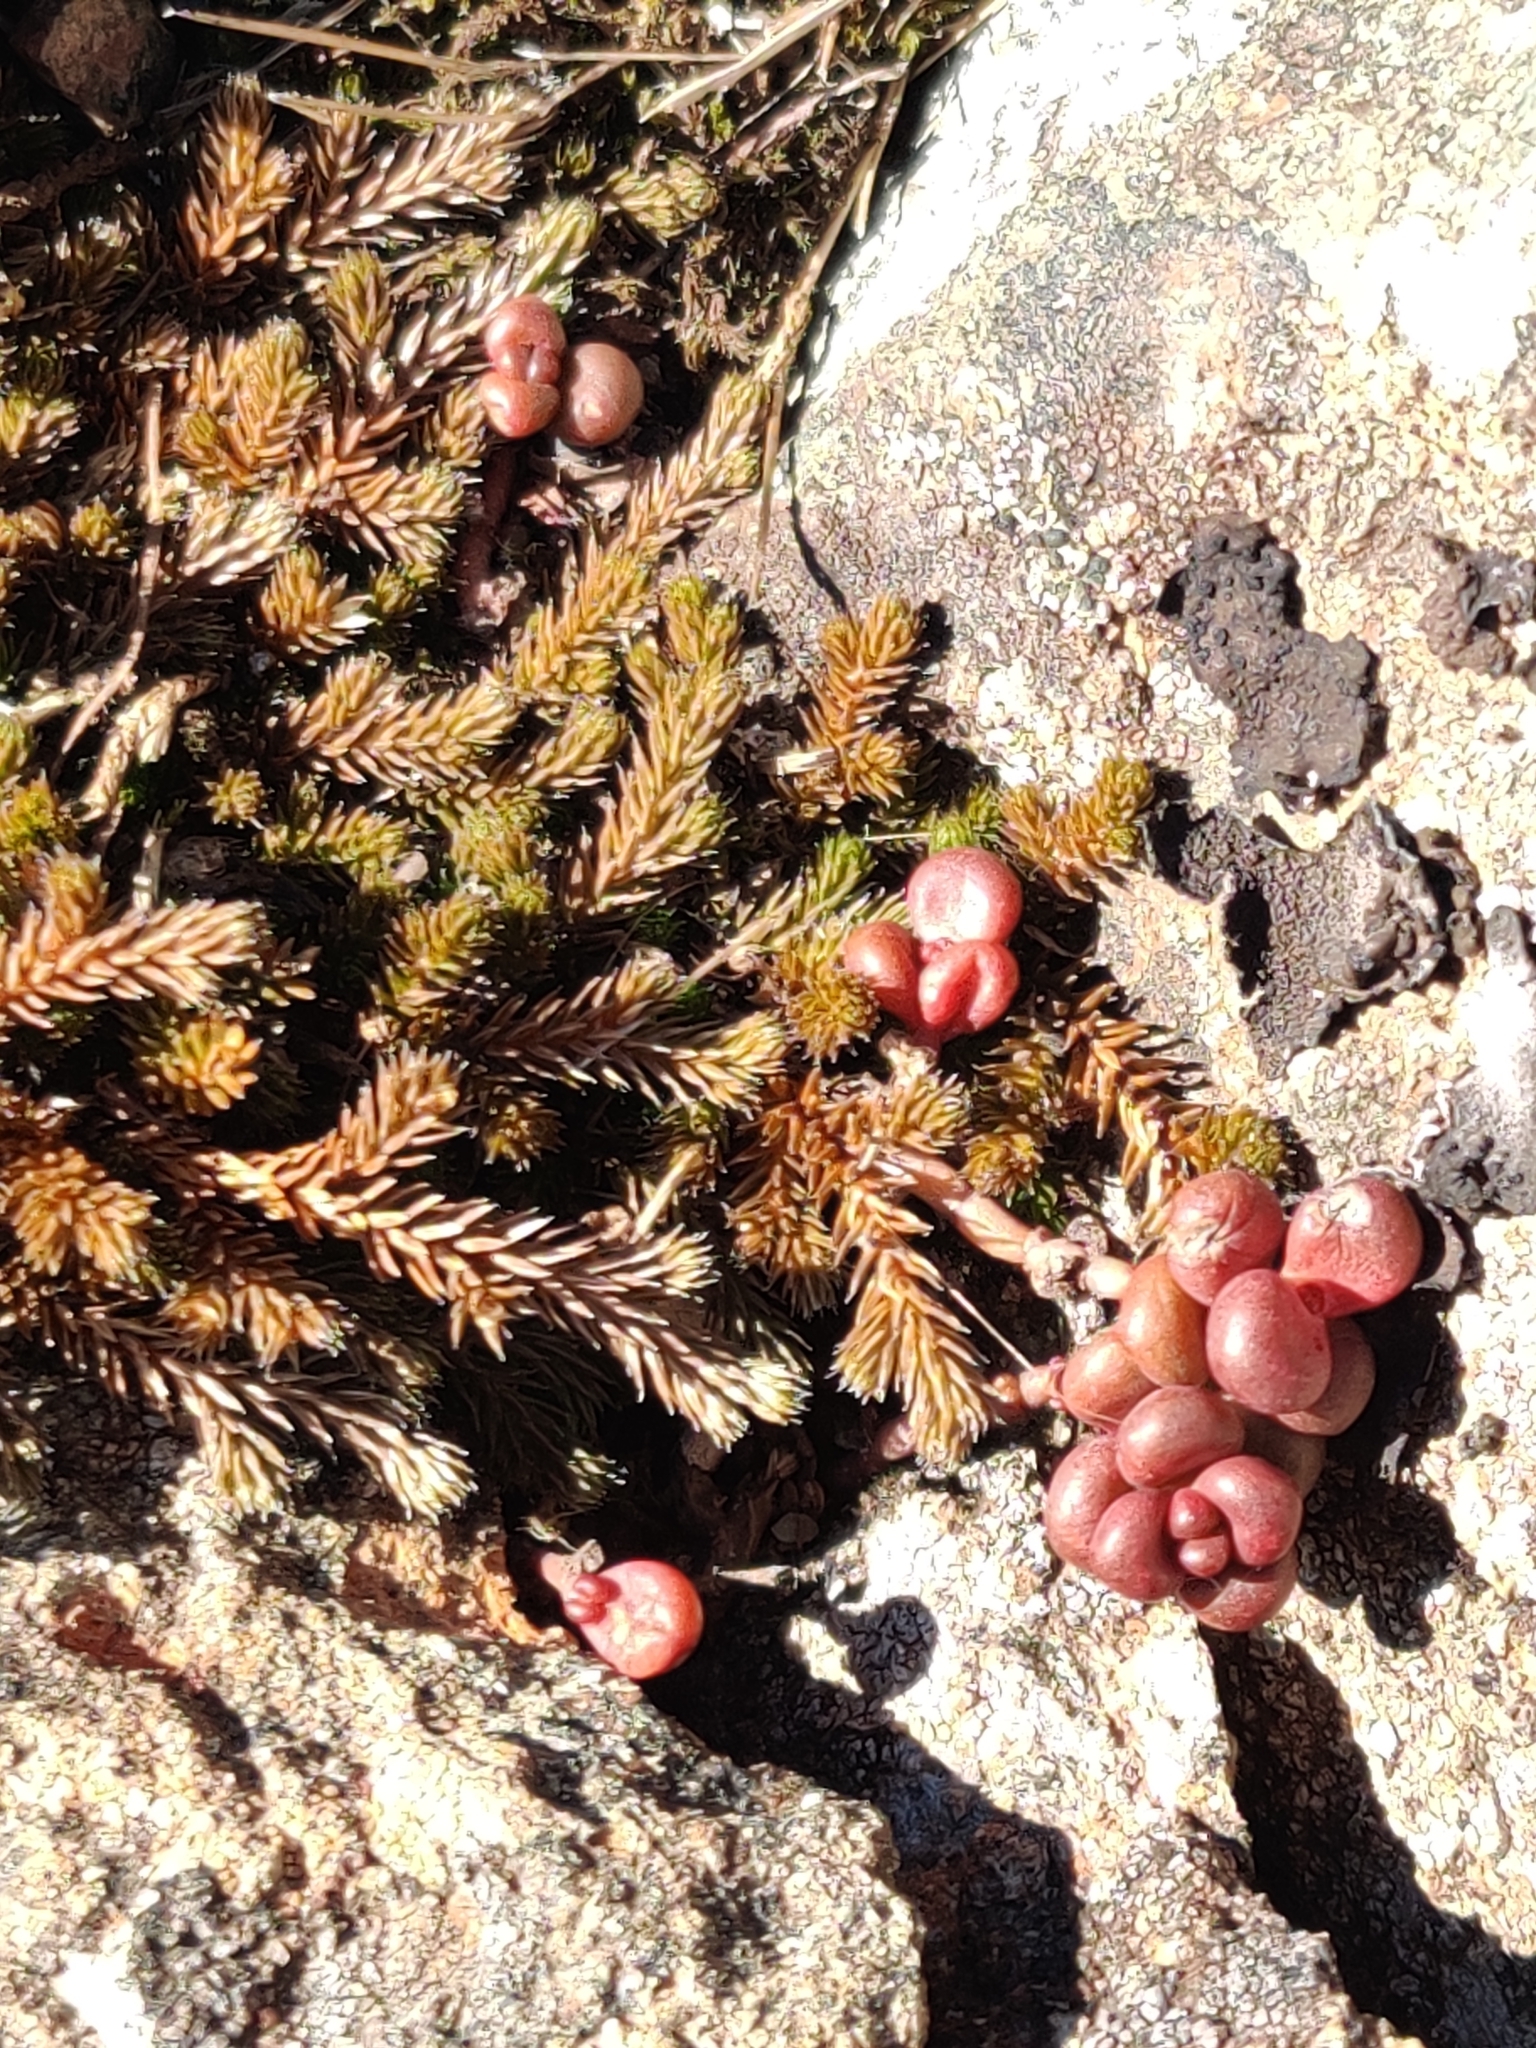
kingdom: Plantae
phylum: Tracheophyta
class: Magnoliopsida
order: Saxifragales
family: Crassulaceae
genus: Sedum
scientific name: Sedum divergens
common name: Cascade stonecrop
